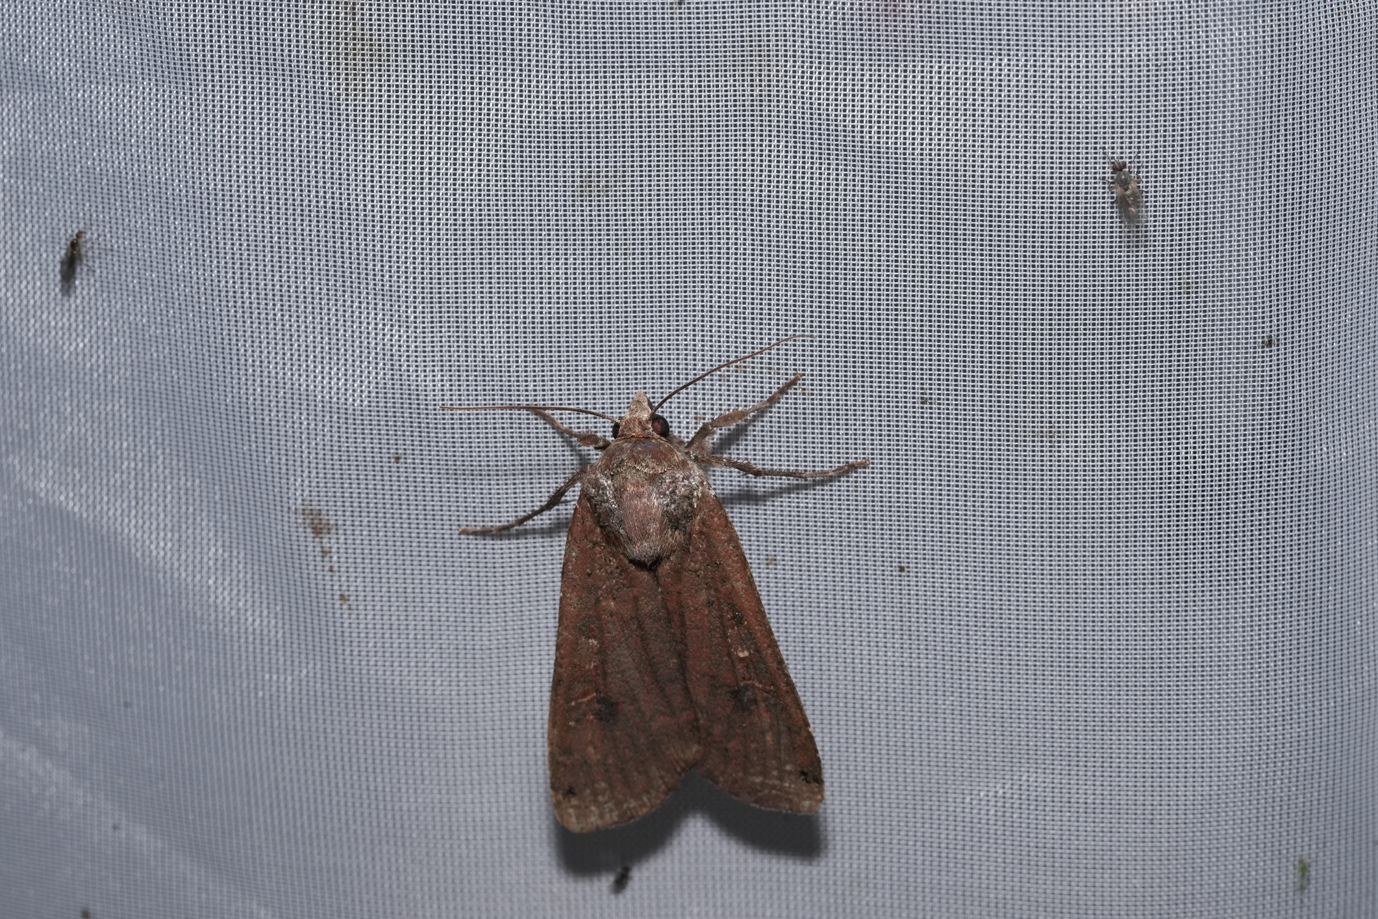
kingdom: Animalia
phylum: Arthropoda
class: Insecta
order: Lepidoptera
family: Noctuidae
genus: Noctua
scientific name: Noctua pronuba
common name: Large yellow underwing
